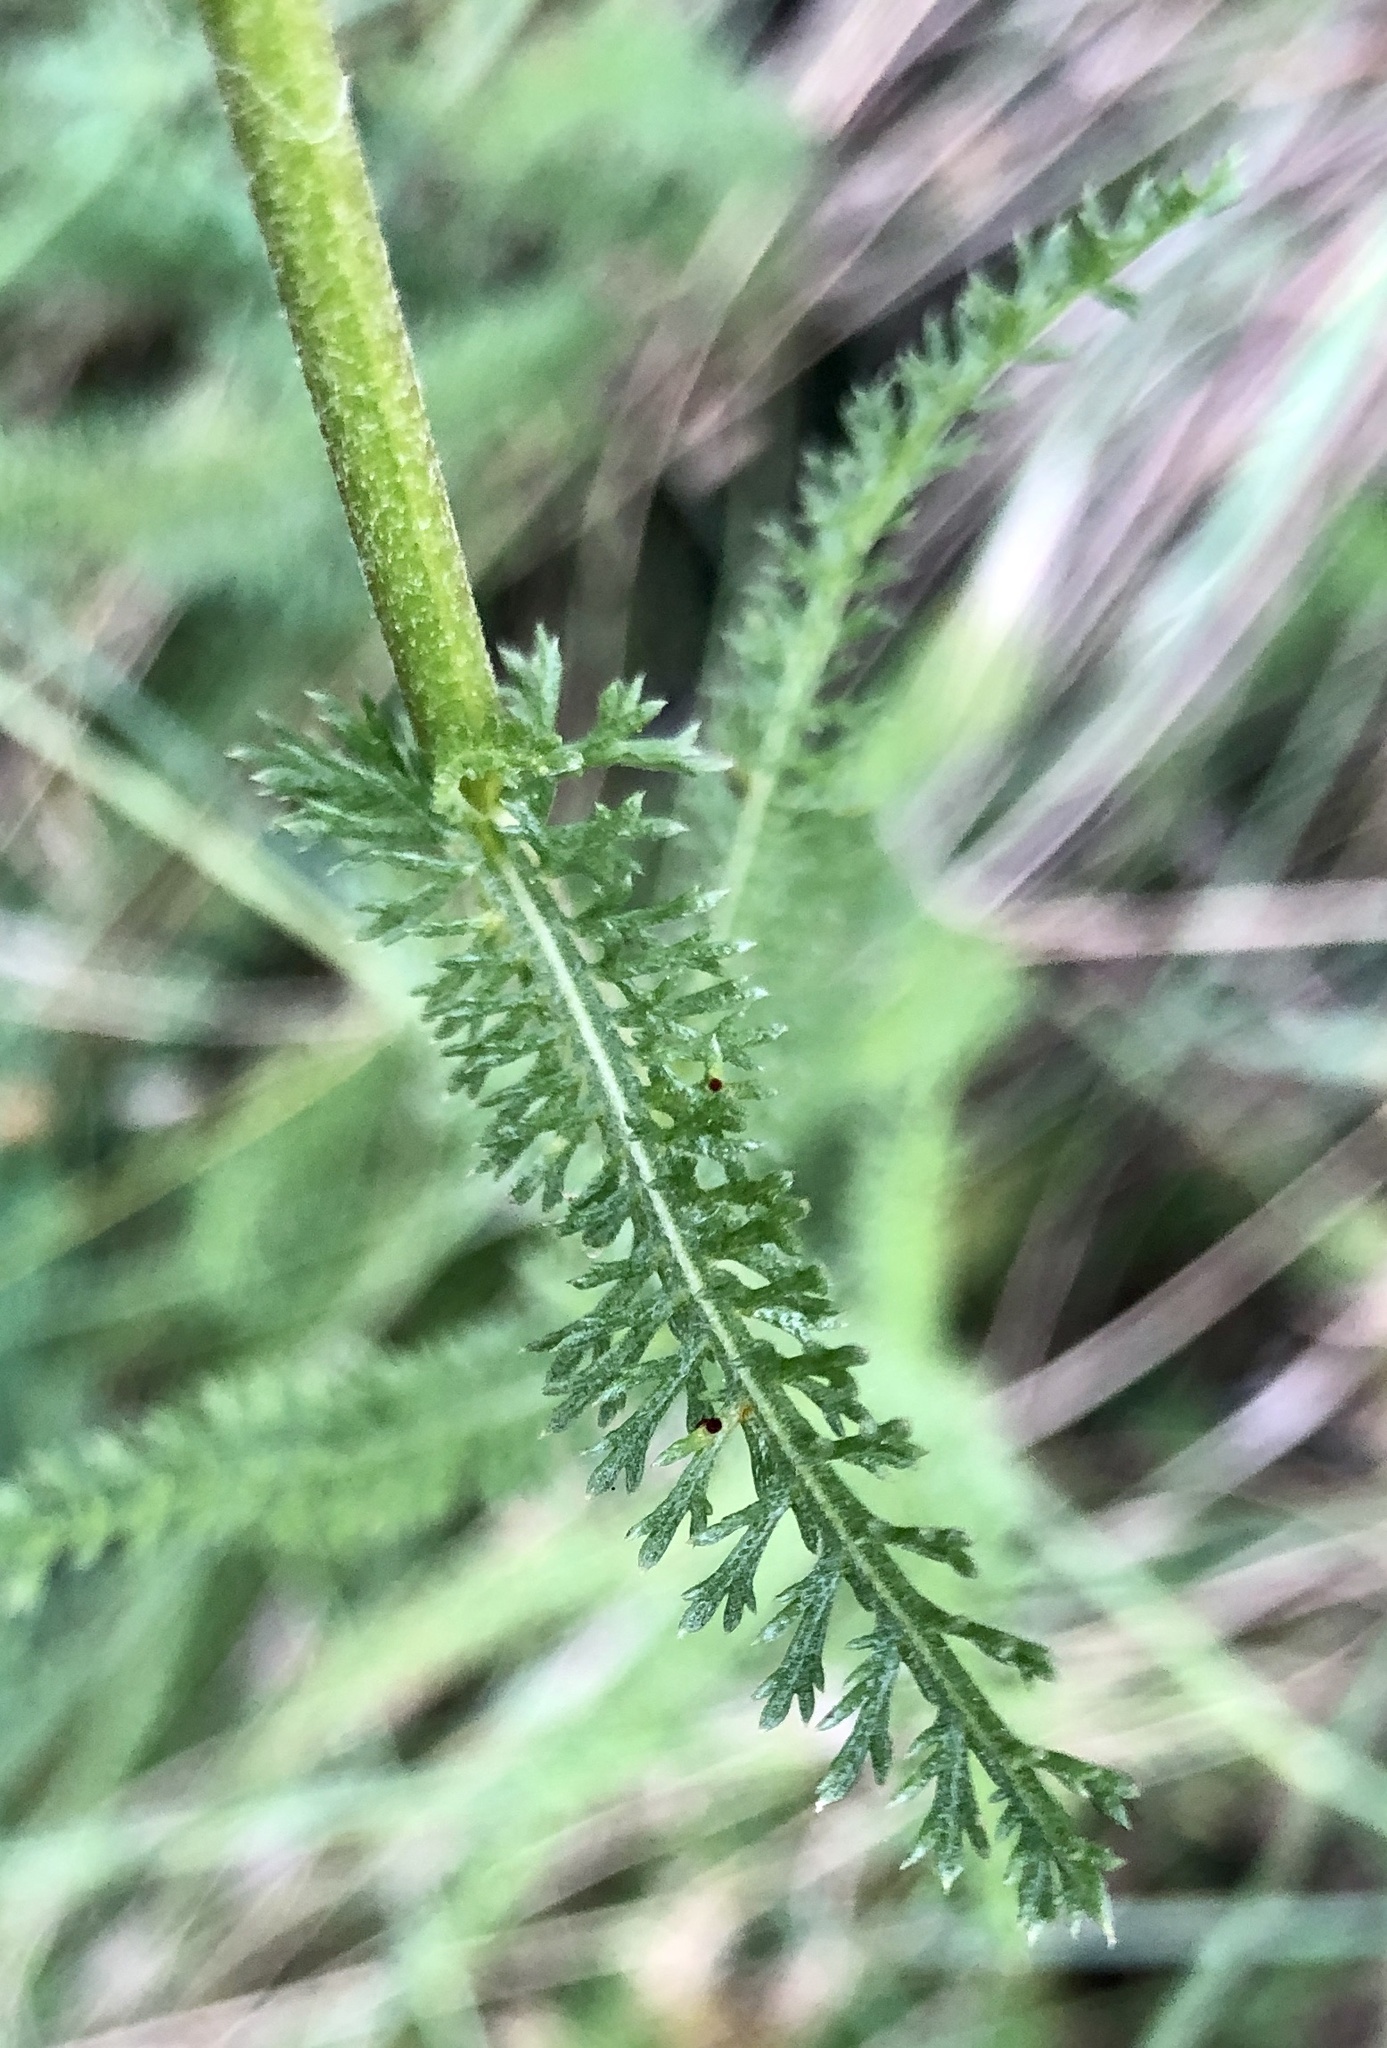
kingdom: Plantae
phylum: Tracheophyta
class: Magnoliopsida
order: Asterales
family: Asteraceae
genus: Achillea
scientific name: Achillea millefolium
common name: Yarrow
